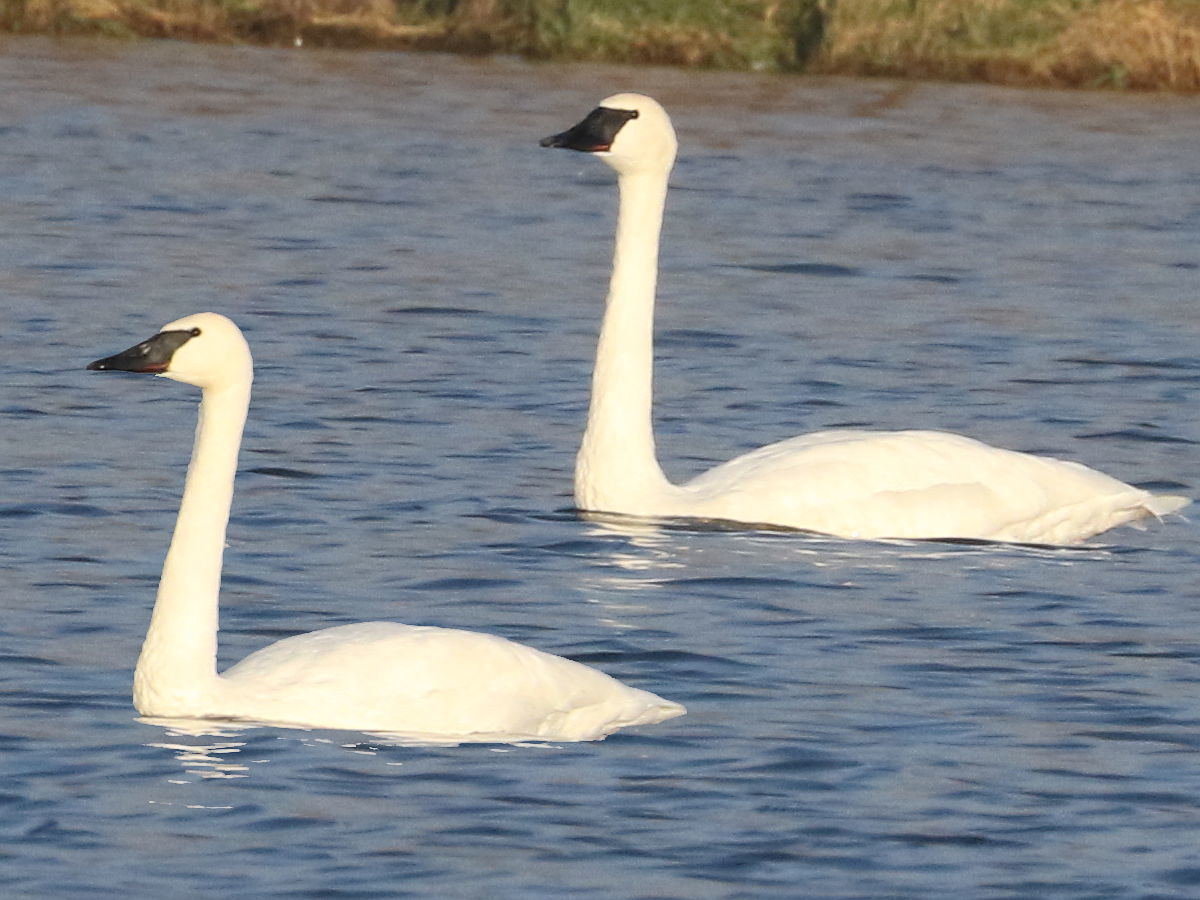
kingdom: Animalia
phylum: Chordata
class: Aves
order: Anseriformes
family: Anatidae
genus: Cygnus
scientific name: Cygnus buccinator
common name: Trumpeter swan
